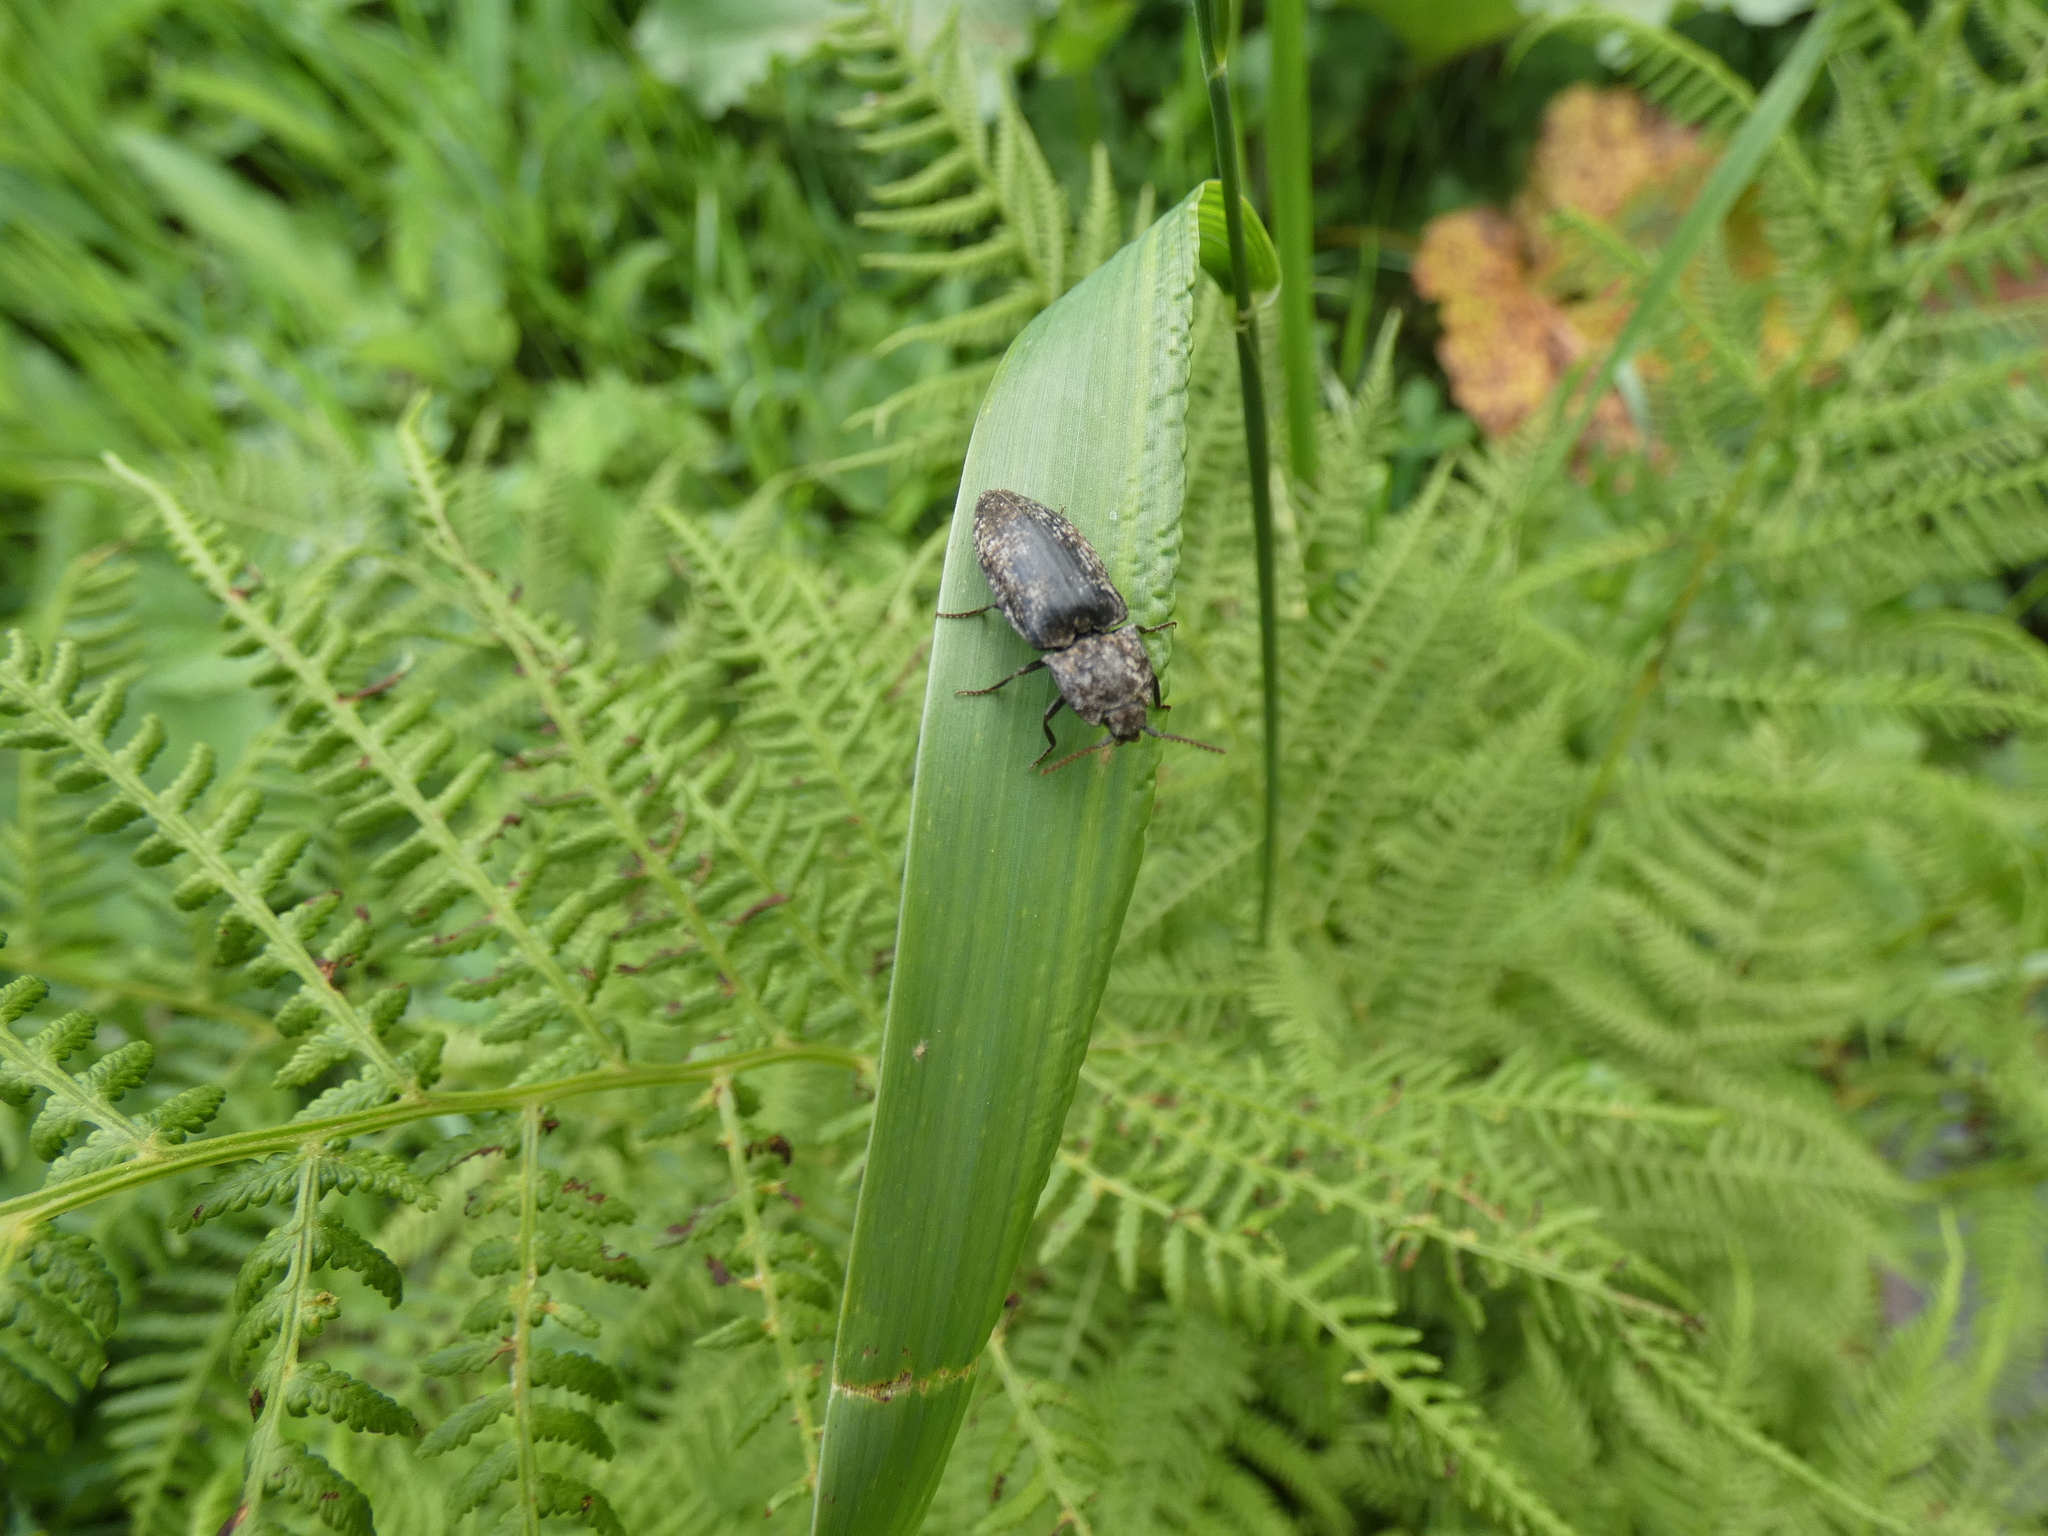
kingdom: Animalia
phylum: Arthropoda
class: Insecta
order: Coleoptera
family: Elateridae
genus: Agrypnus
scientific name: Agrypnus murinus
